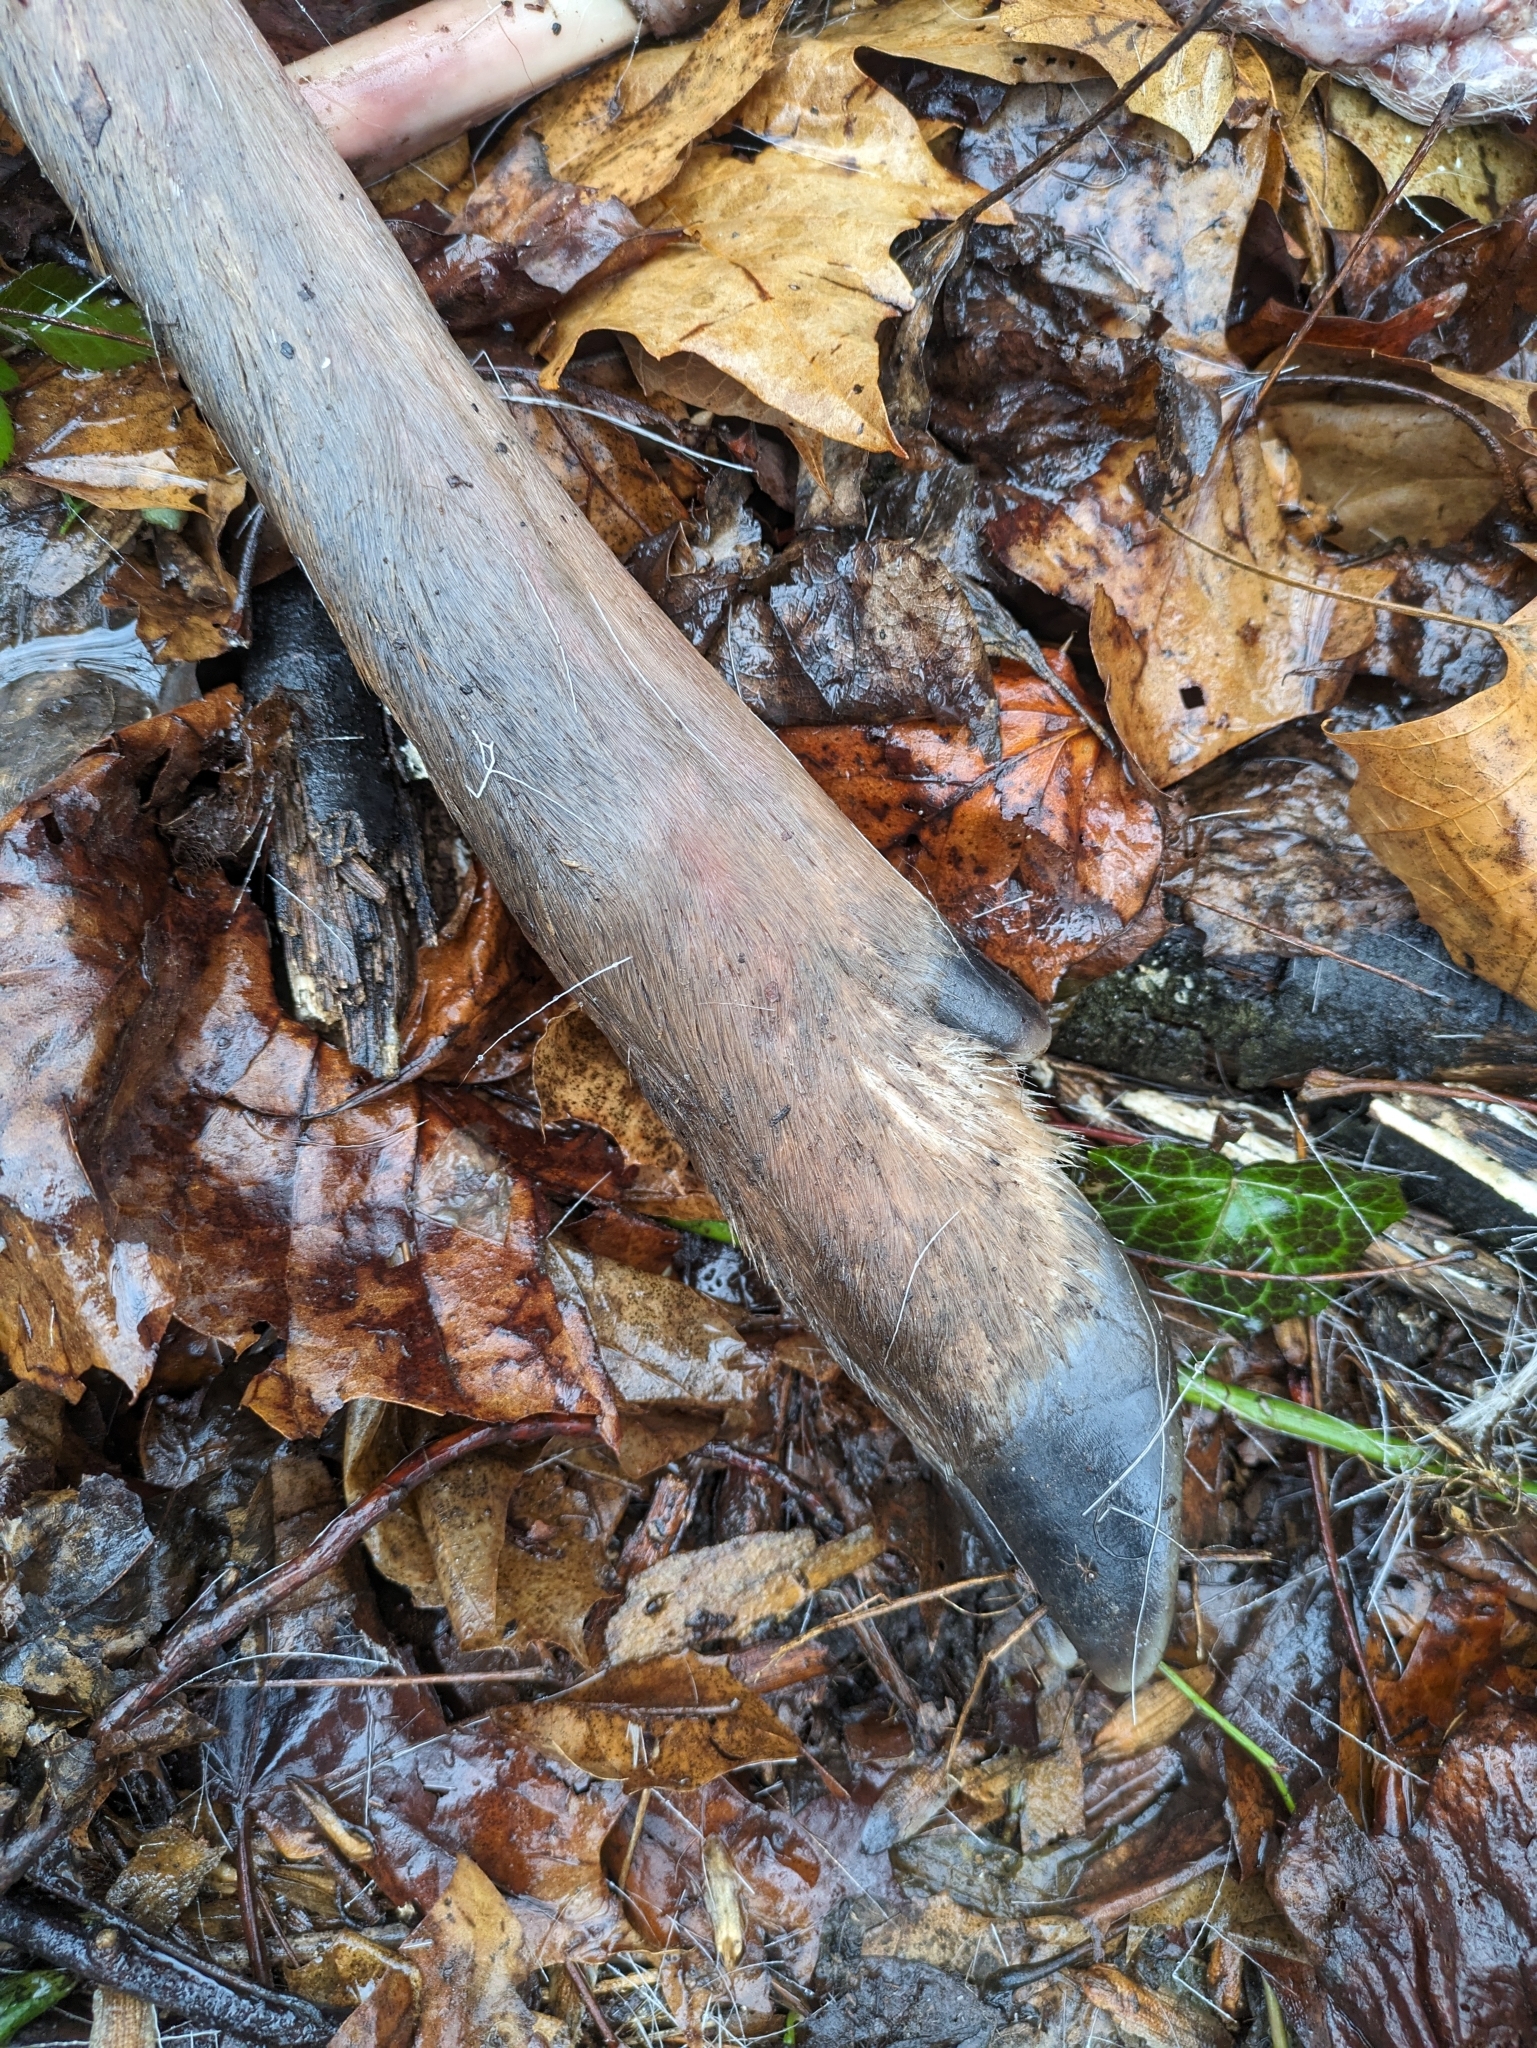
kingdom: Animalia
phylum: Chordata
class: Mammalia
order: Artiodactyla
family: Cervidae
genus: Odocoileus
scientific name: Odocoileus virginianus
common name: White-tailed deer
